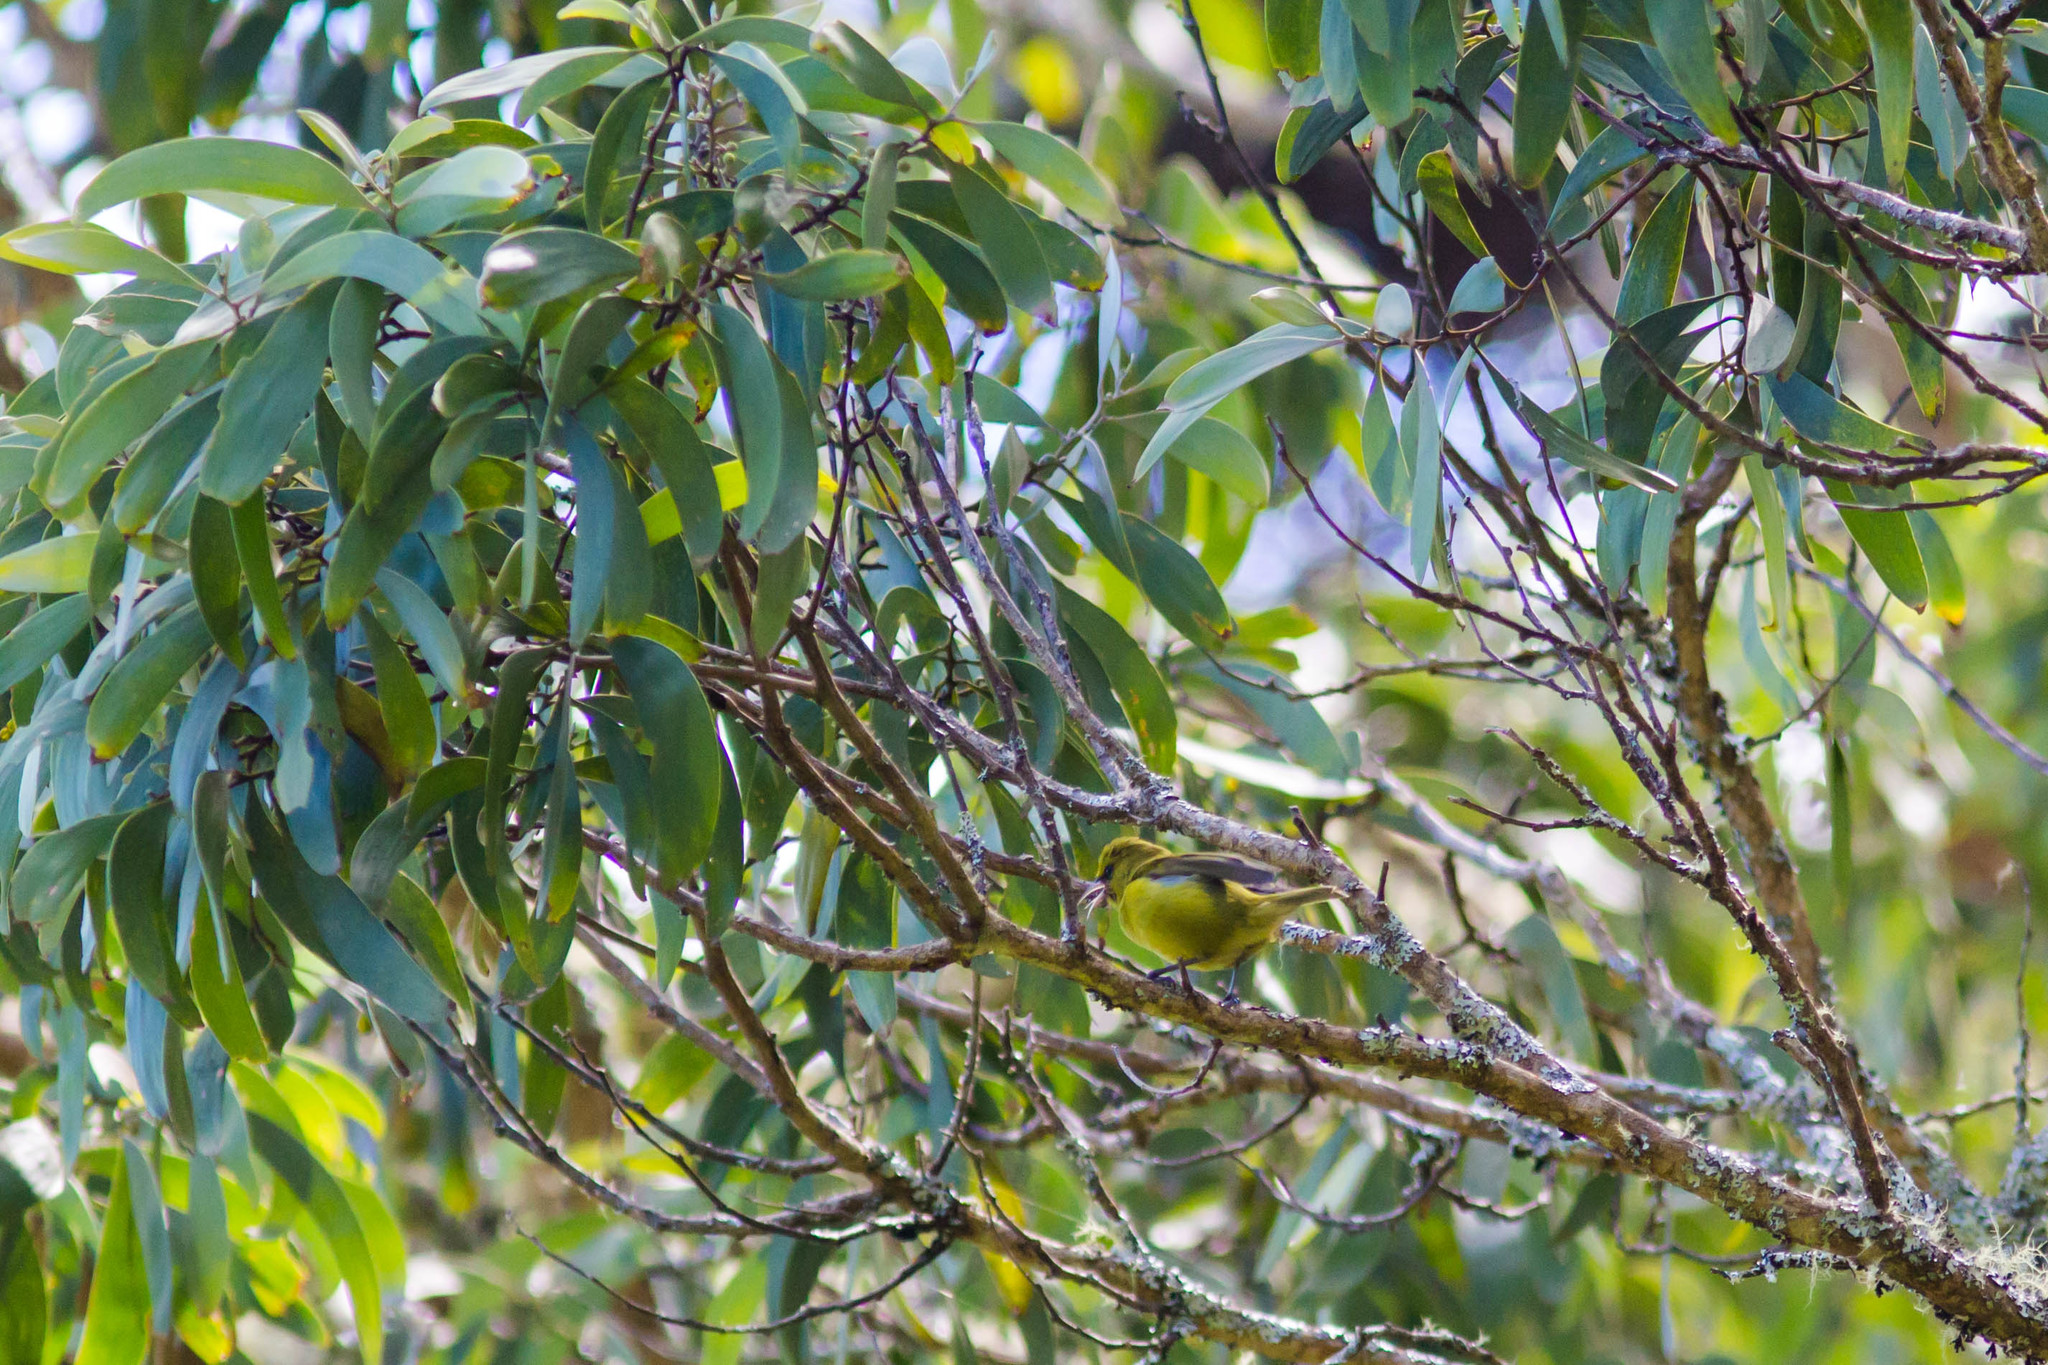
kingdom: Animalia
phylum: Chordata
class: Aves
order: Passeriformes
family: Fringillidae
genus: Chlorodrepanis
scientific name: Chlorodrepanis virens
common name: Hawaii amakihi
